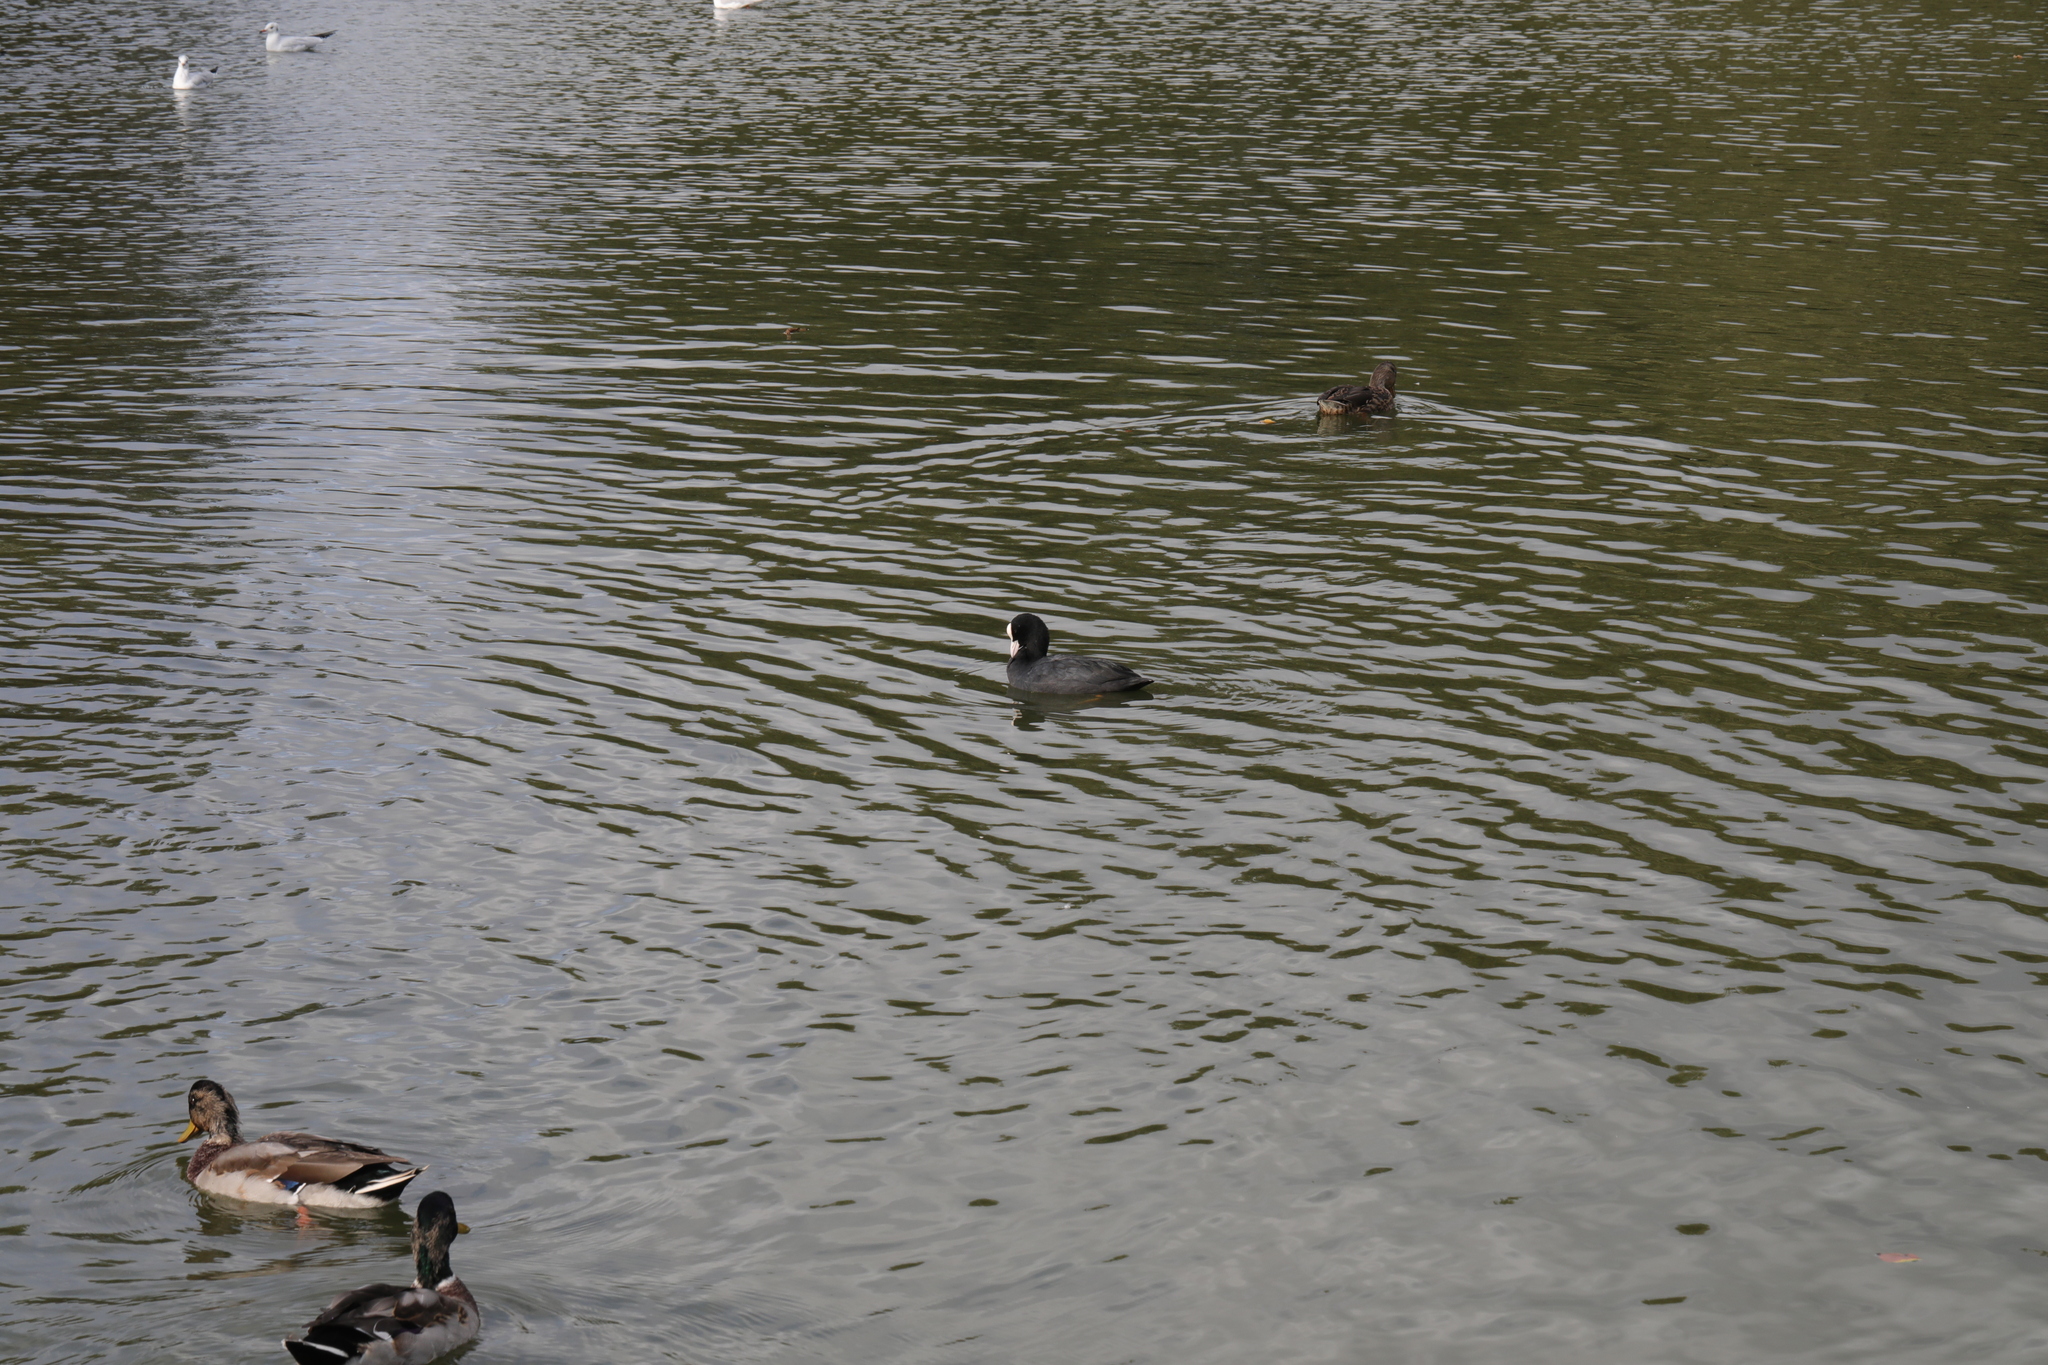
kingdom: Animalia
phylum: Chordata
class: Aves
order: Gruiformes
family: Rallidae
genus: Fulica
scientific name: Fulica atra
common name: Eurasian coot
